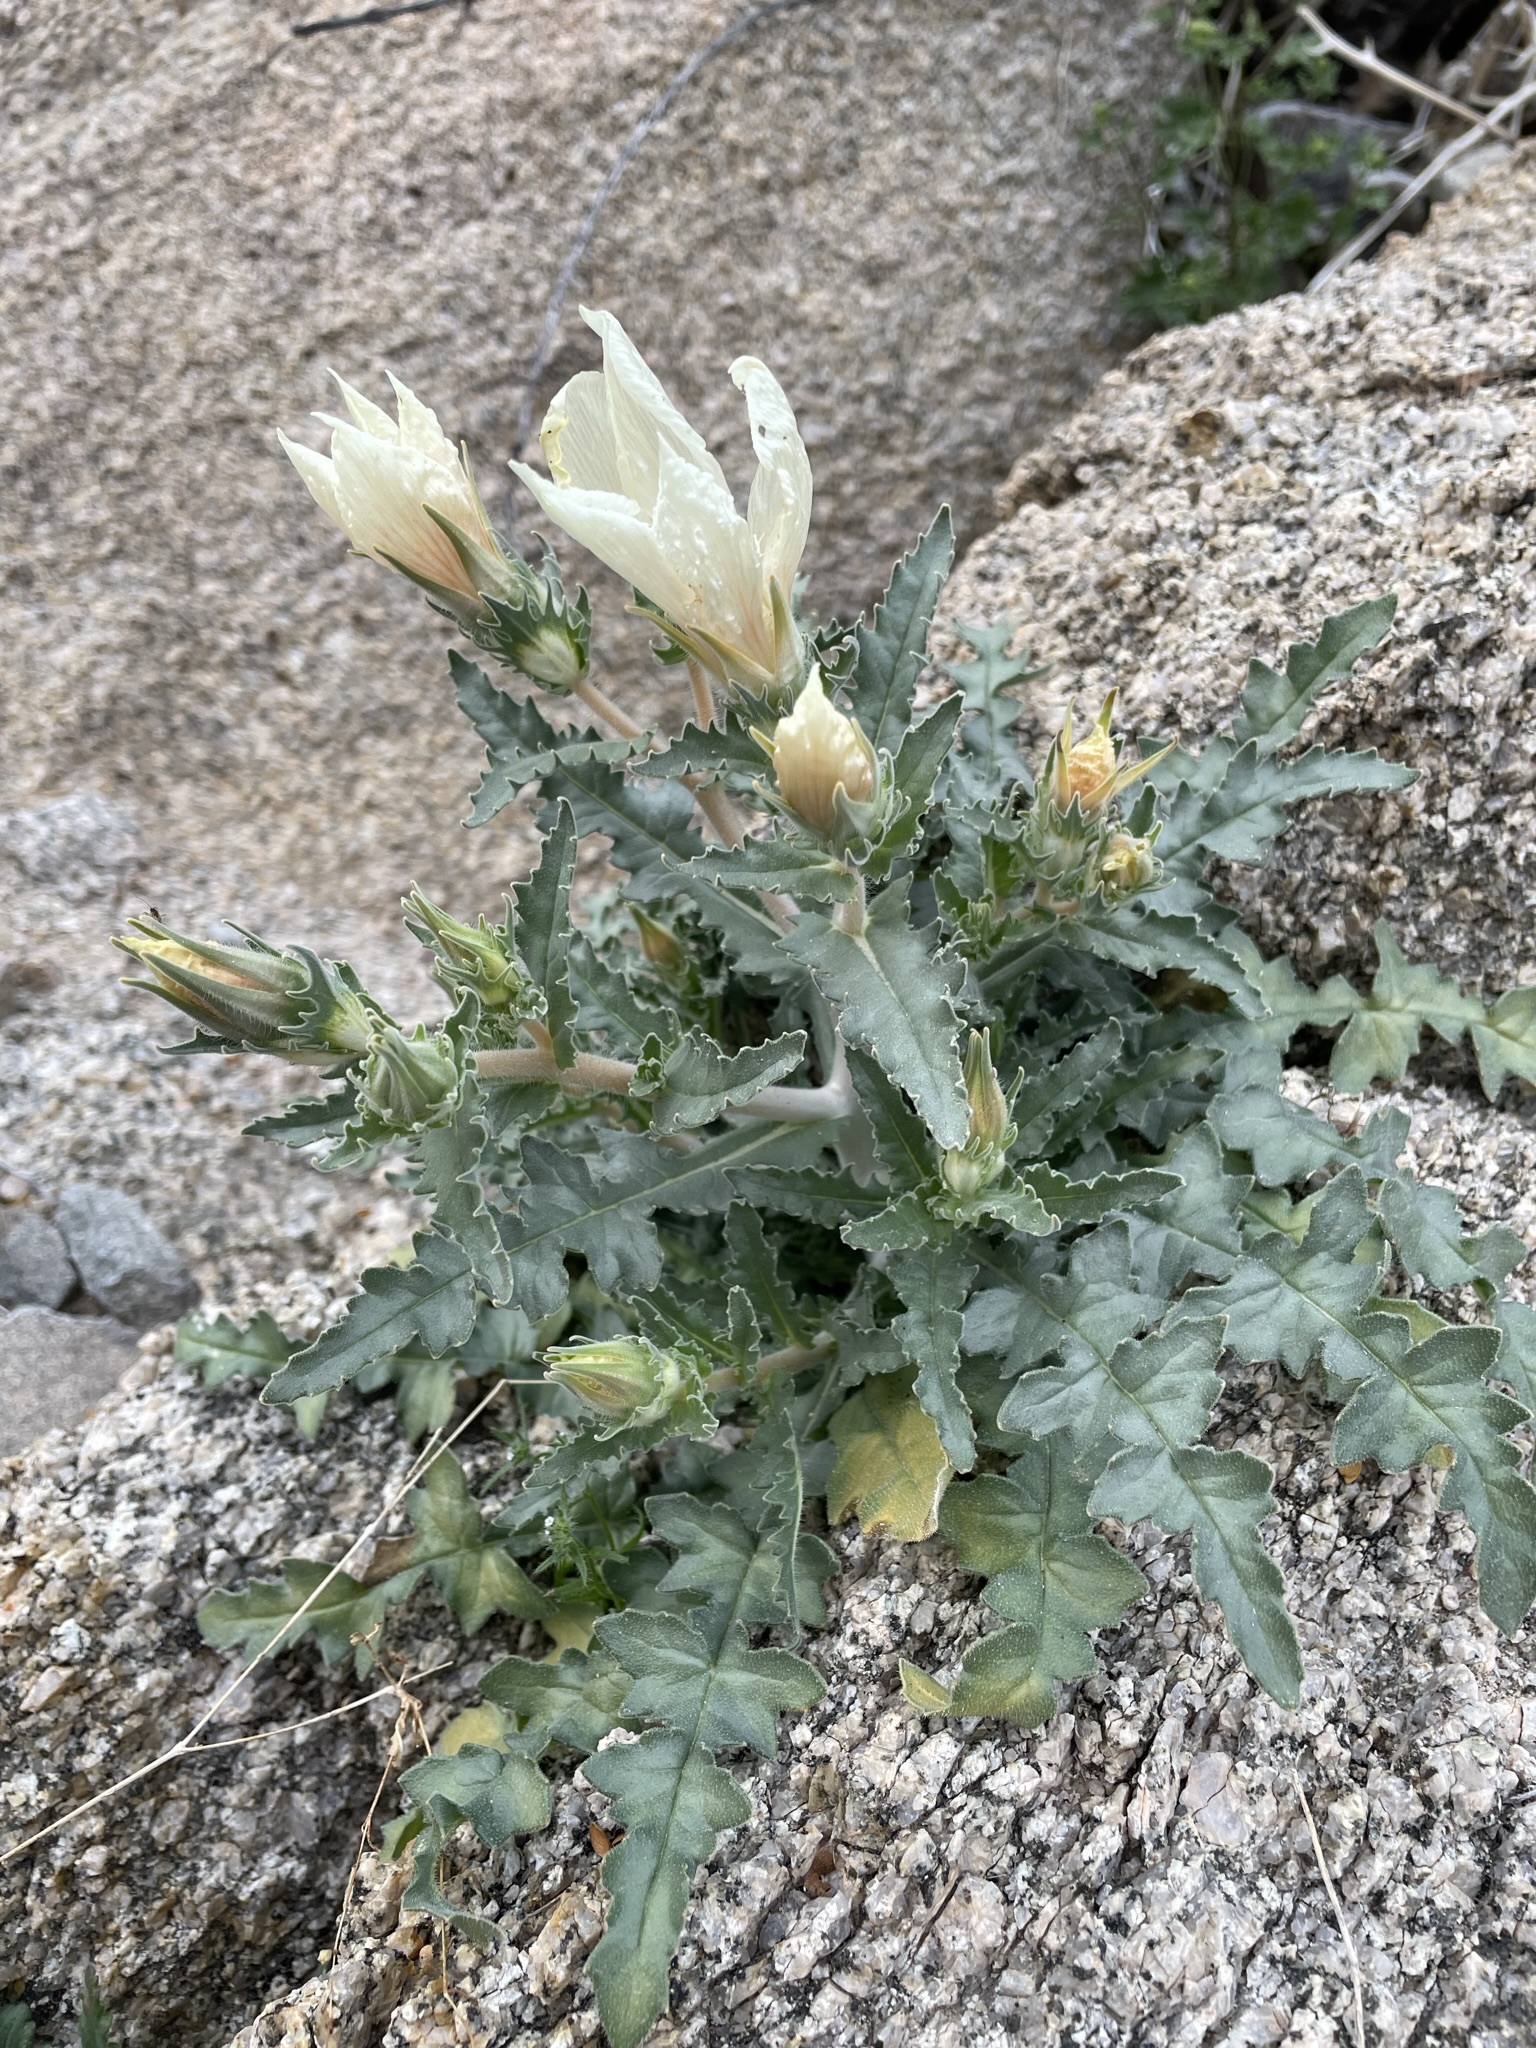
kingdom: Plantae
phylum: Tracheophyta
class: Magnoliopsida
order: Cornales
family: Loasaceae
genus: Mentzelia
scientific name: Mentzelia involucrata
